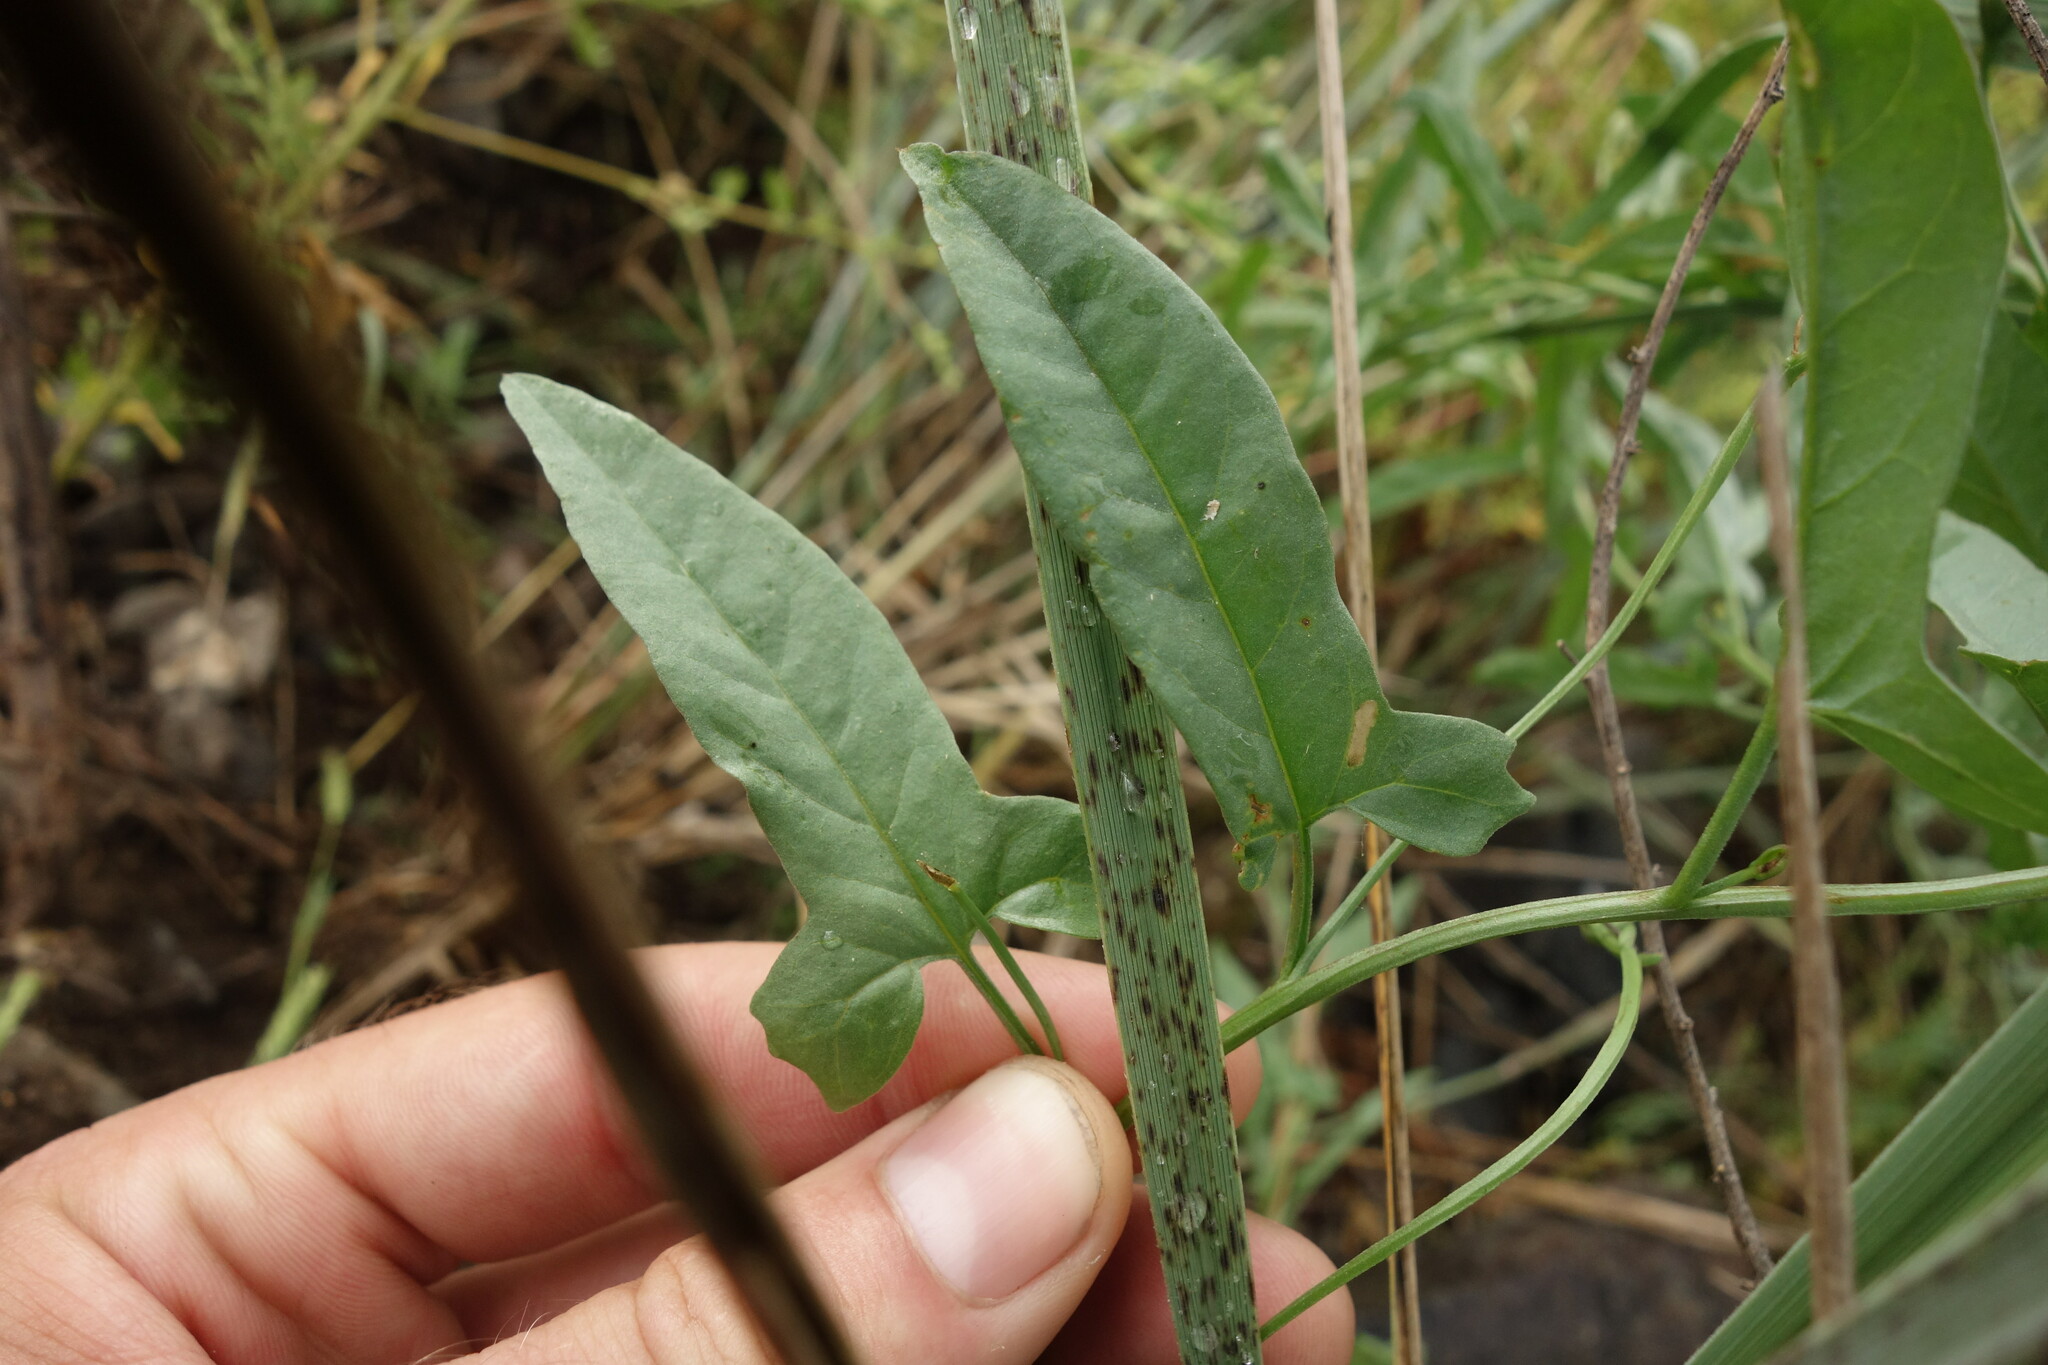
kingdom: Plantae
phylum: Tracheophyta
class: Magnoliopsida
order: Solanales
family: Convolvulaceae
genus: Convolvulus
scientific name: Convolvulus arvensis
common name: Field bindweed
